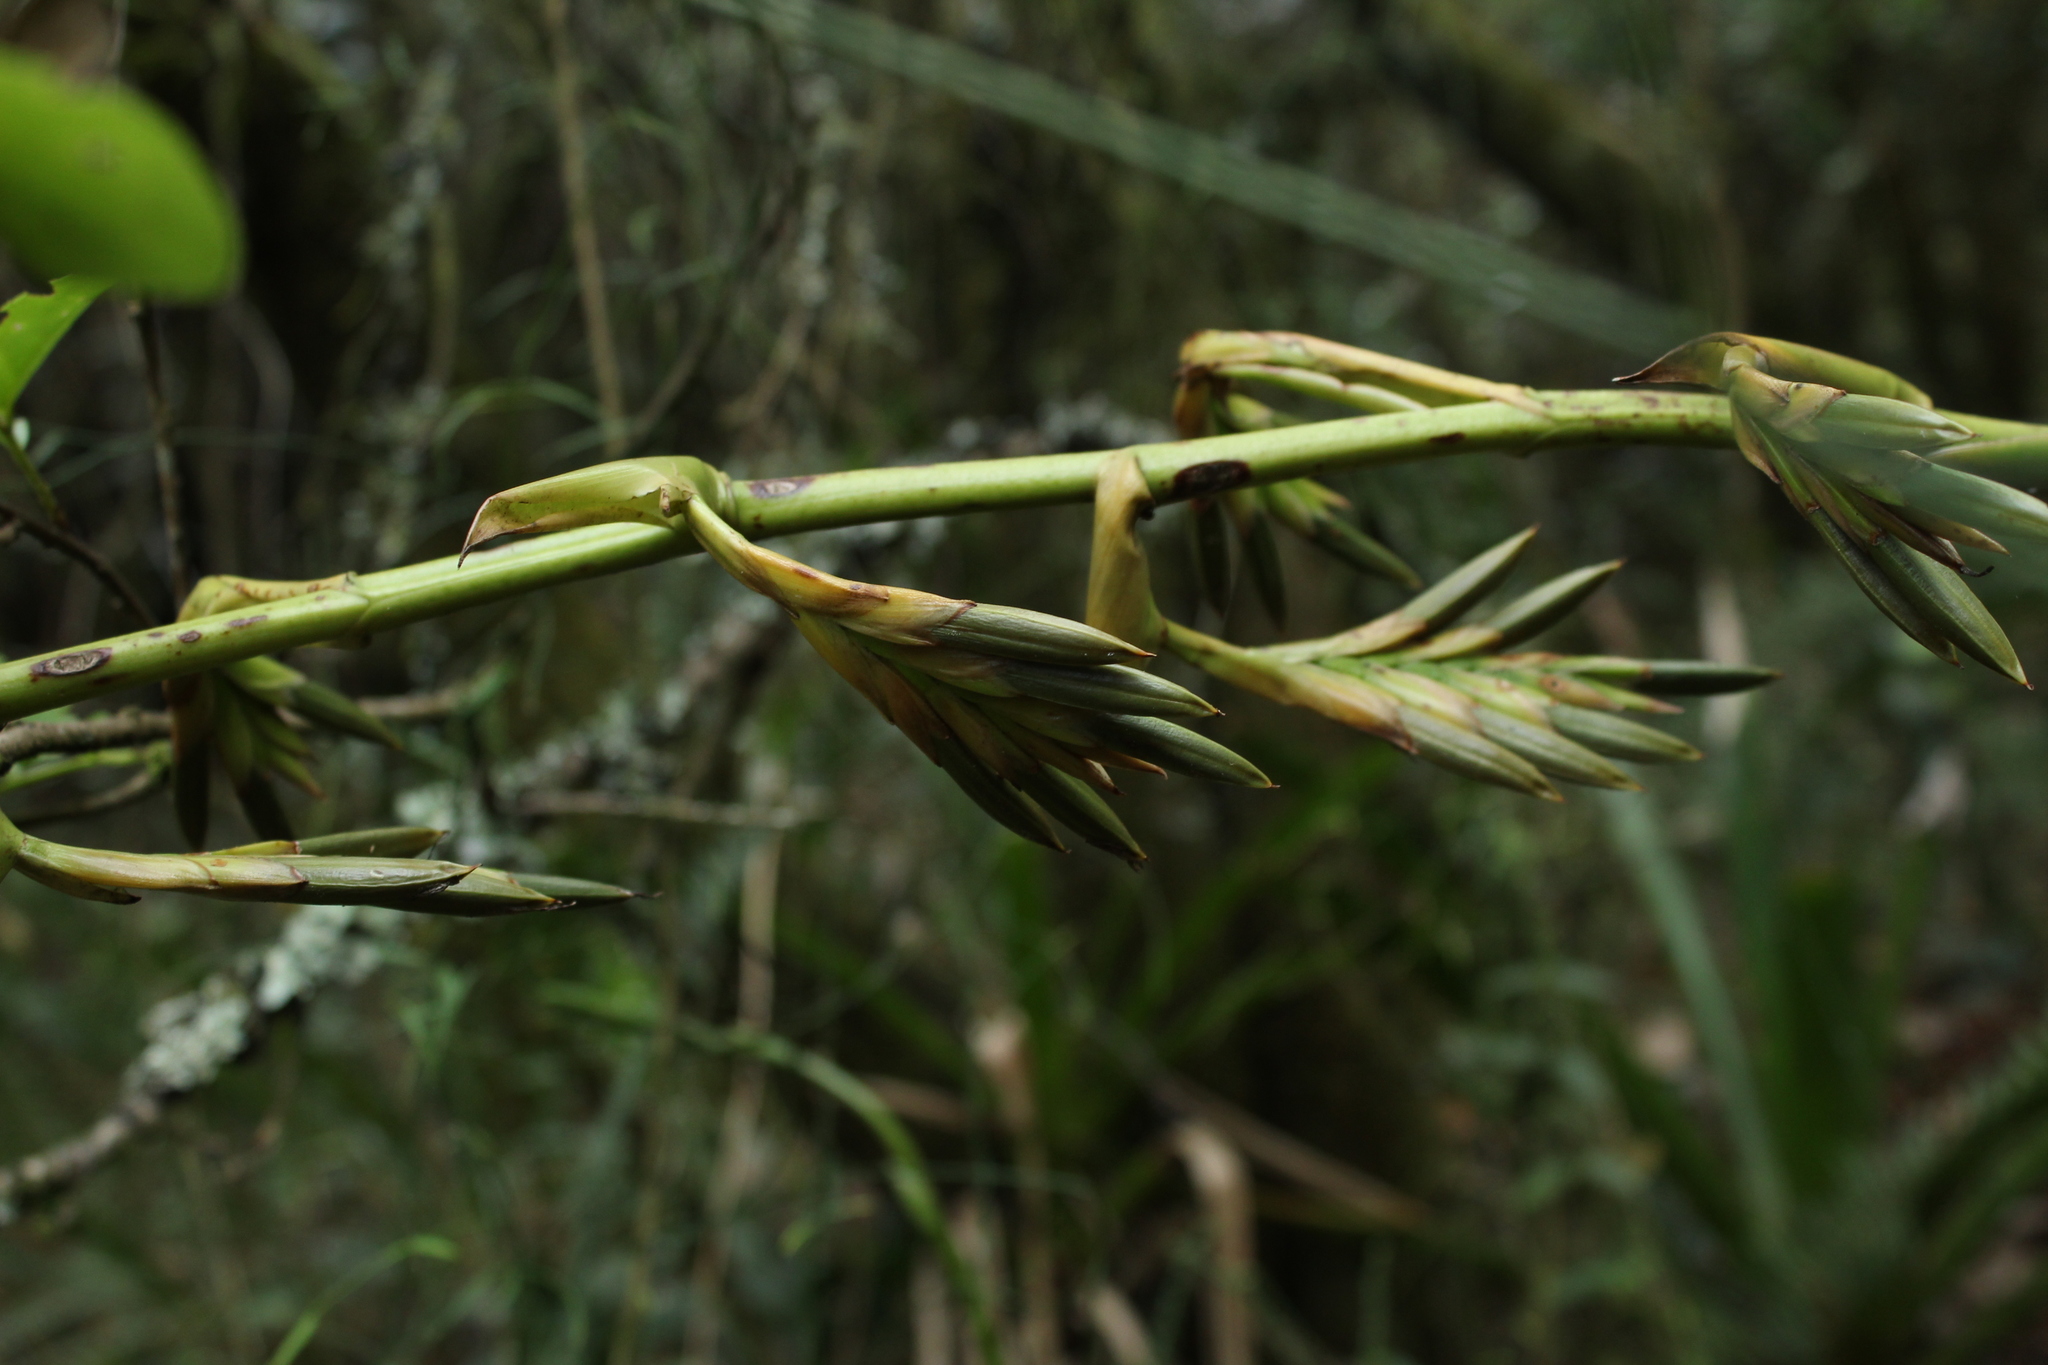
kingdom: Plantae
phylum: Tracheophyta
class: Liliopsida
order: Poales
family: Bromeliaceae
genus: Tillandsia
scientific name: Tillandsia denudata
